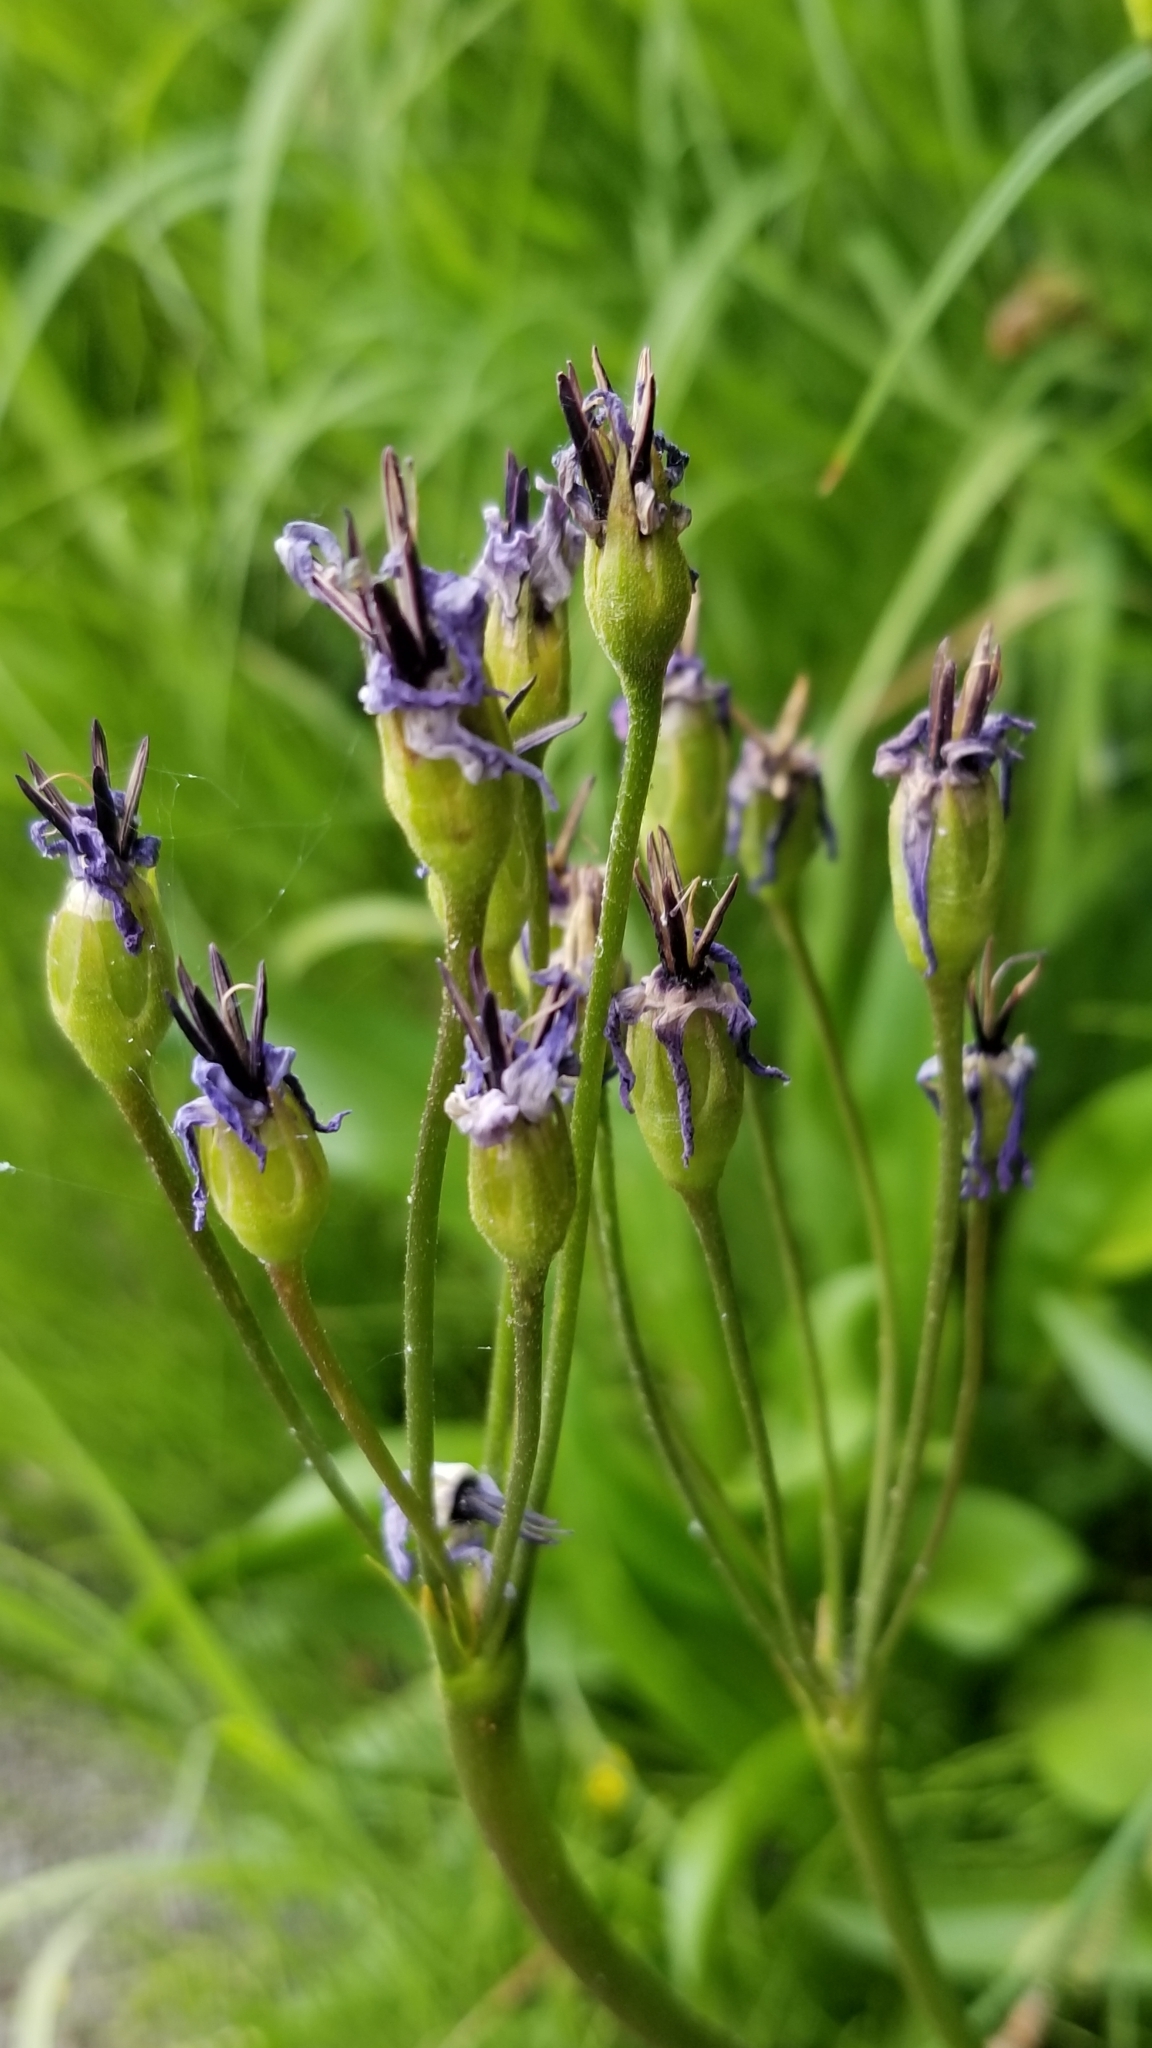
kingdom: Plantae
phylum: Tracheophyta
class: Magnoliopsida
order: Ericales
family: Primulaceae
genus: Dodecatheon
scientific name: Dodecatheon jeffreyanum
